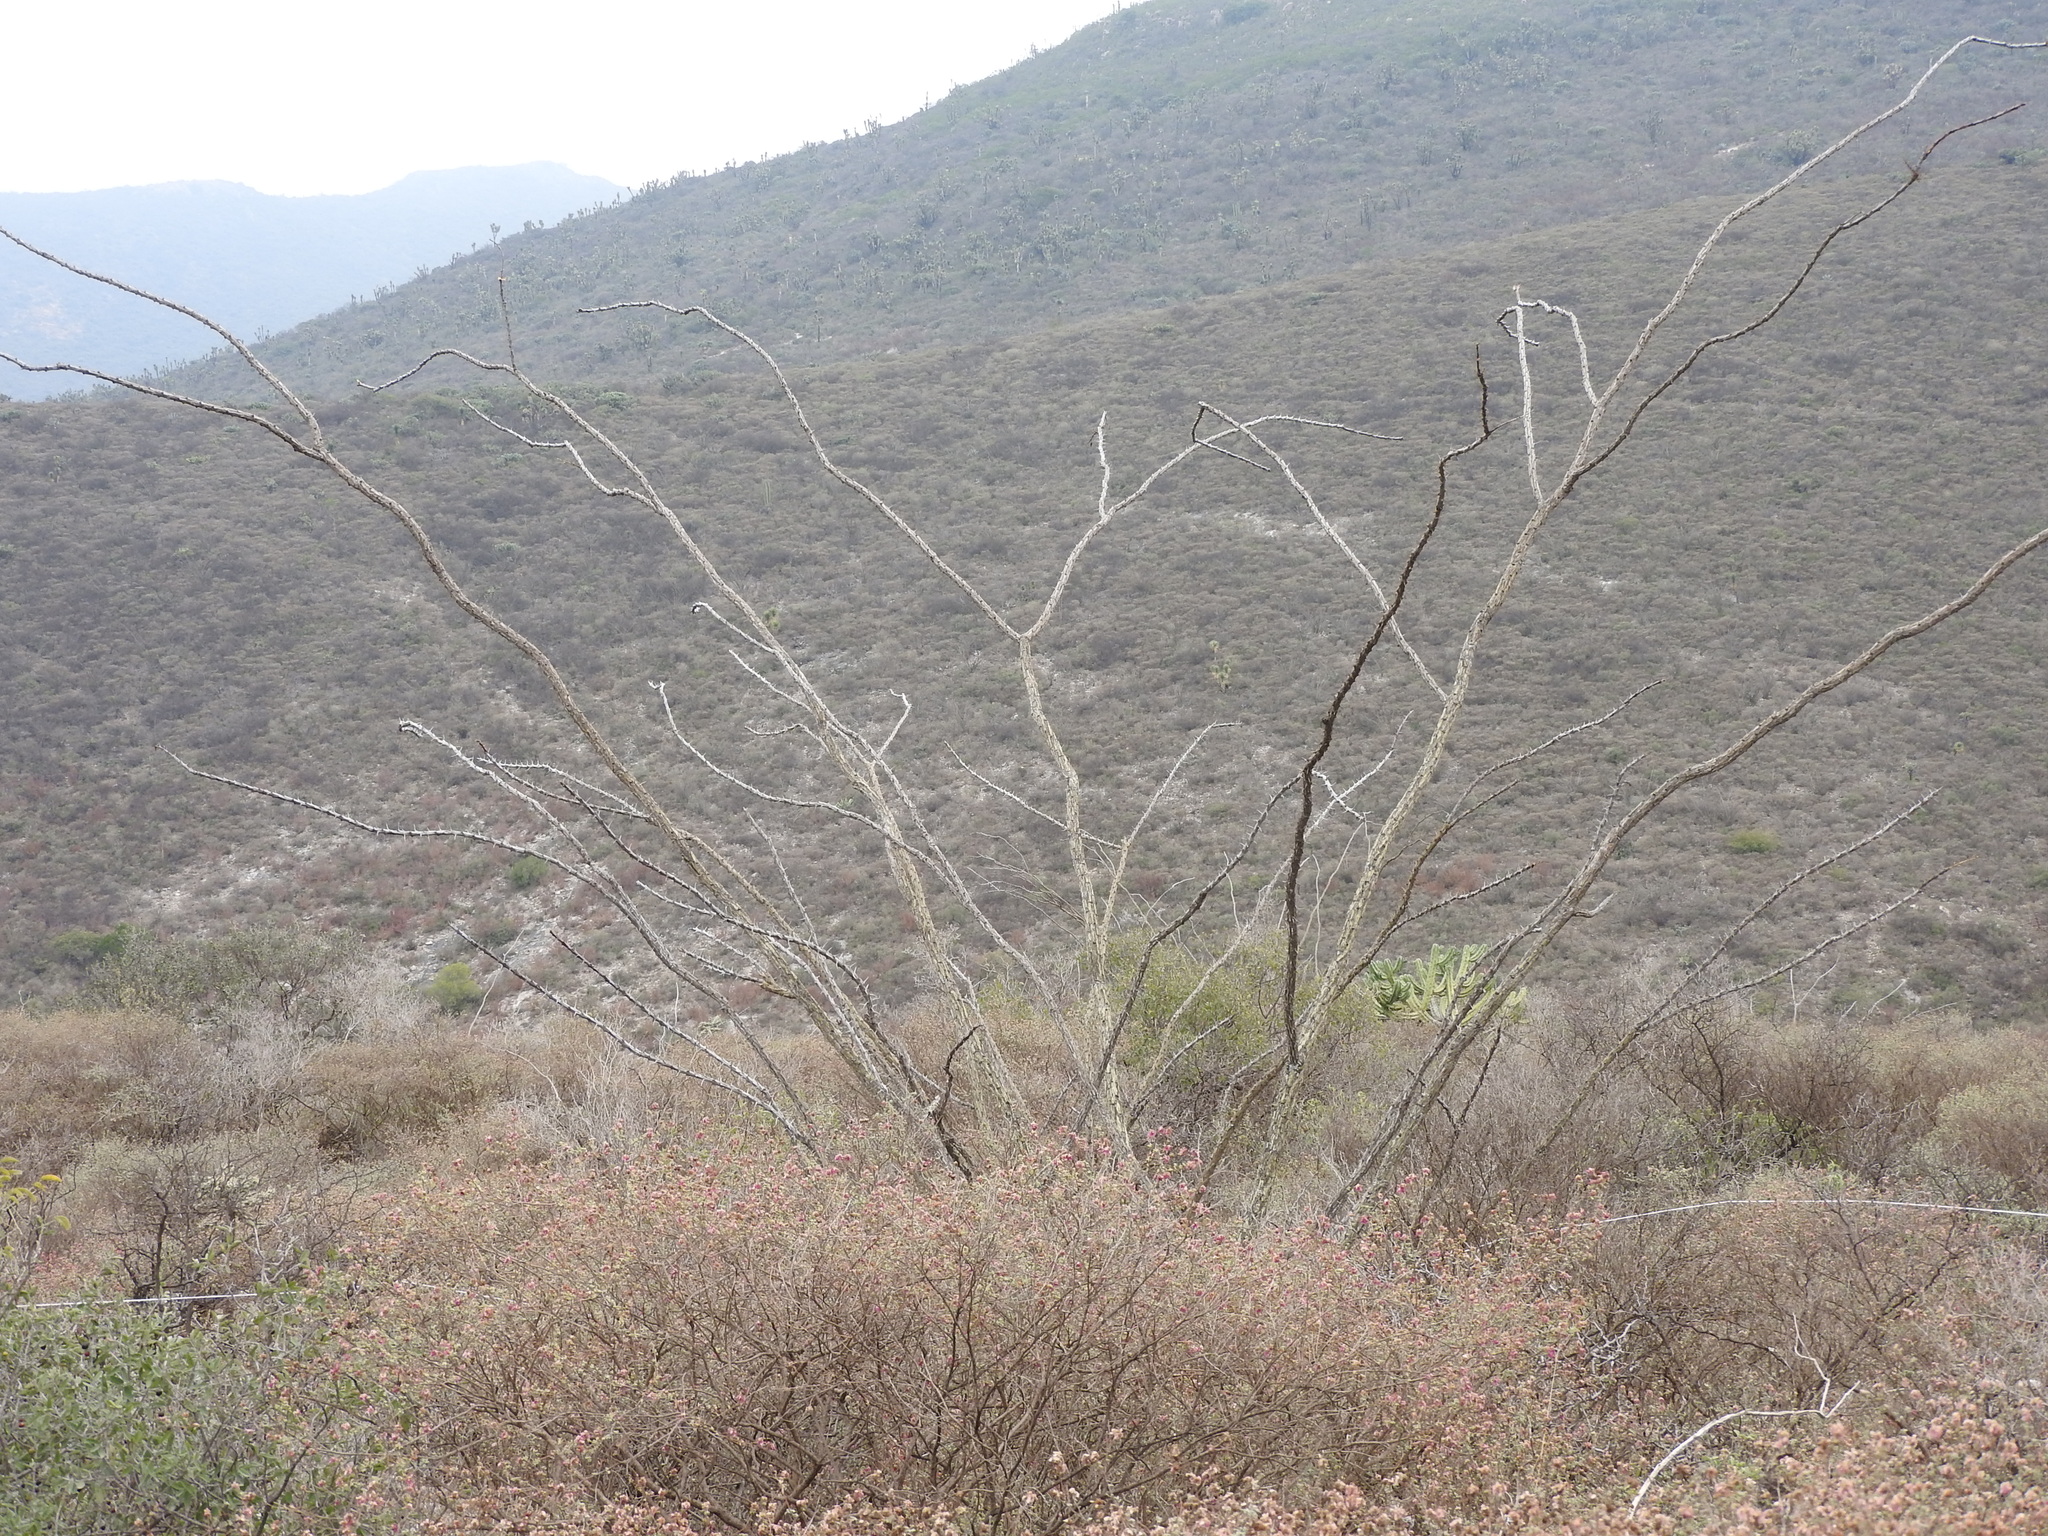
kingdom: Plantae
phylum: Tracheophyta
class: Magnoliopsida
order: Ericales
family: Fouquieriaceae
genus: Fouquieria
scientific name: Fouquieria splendens
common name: Vine-cactus
